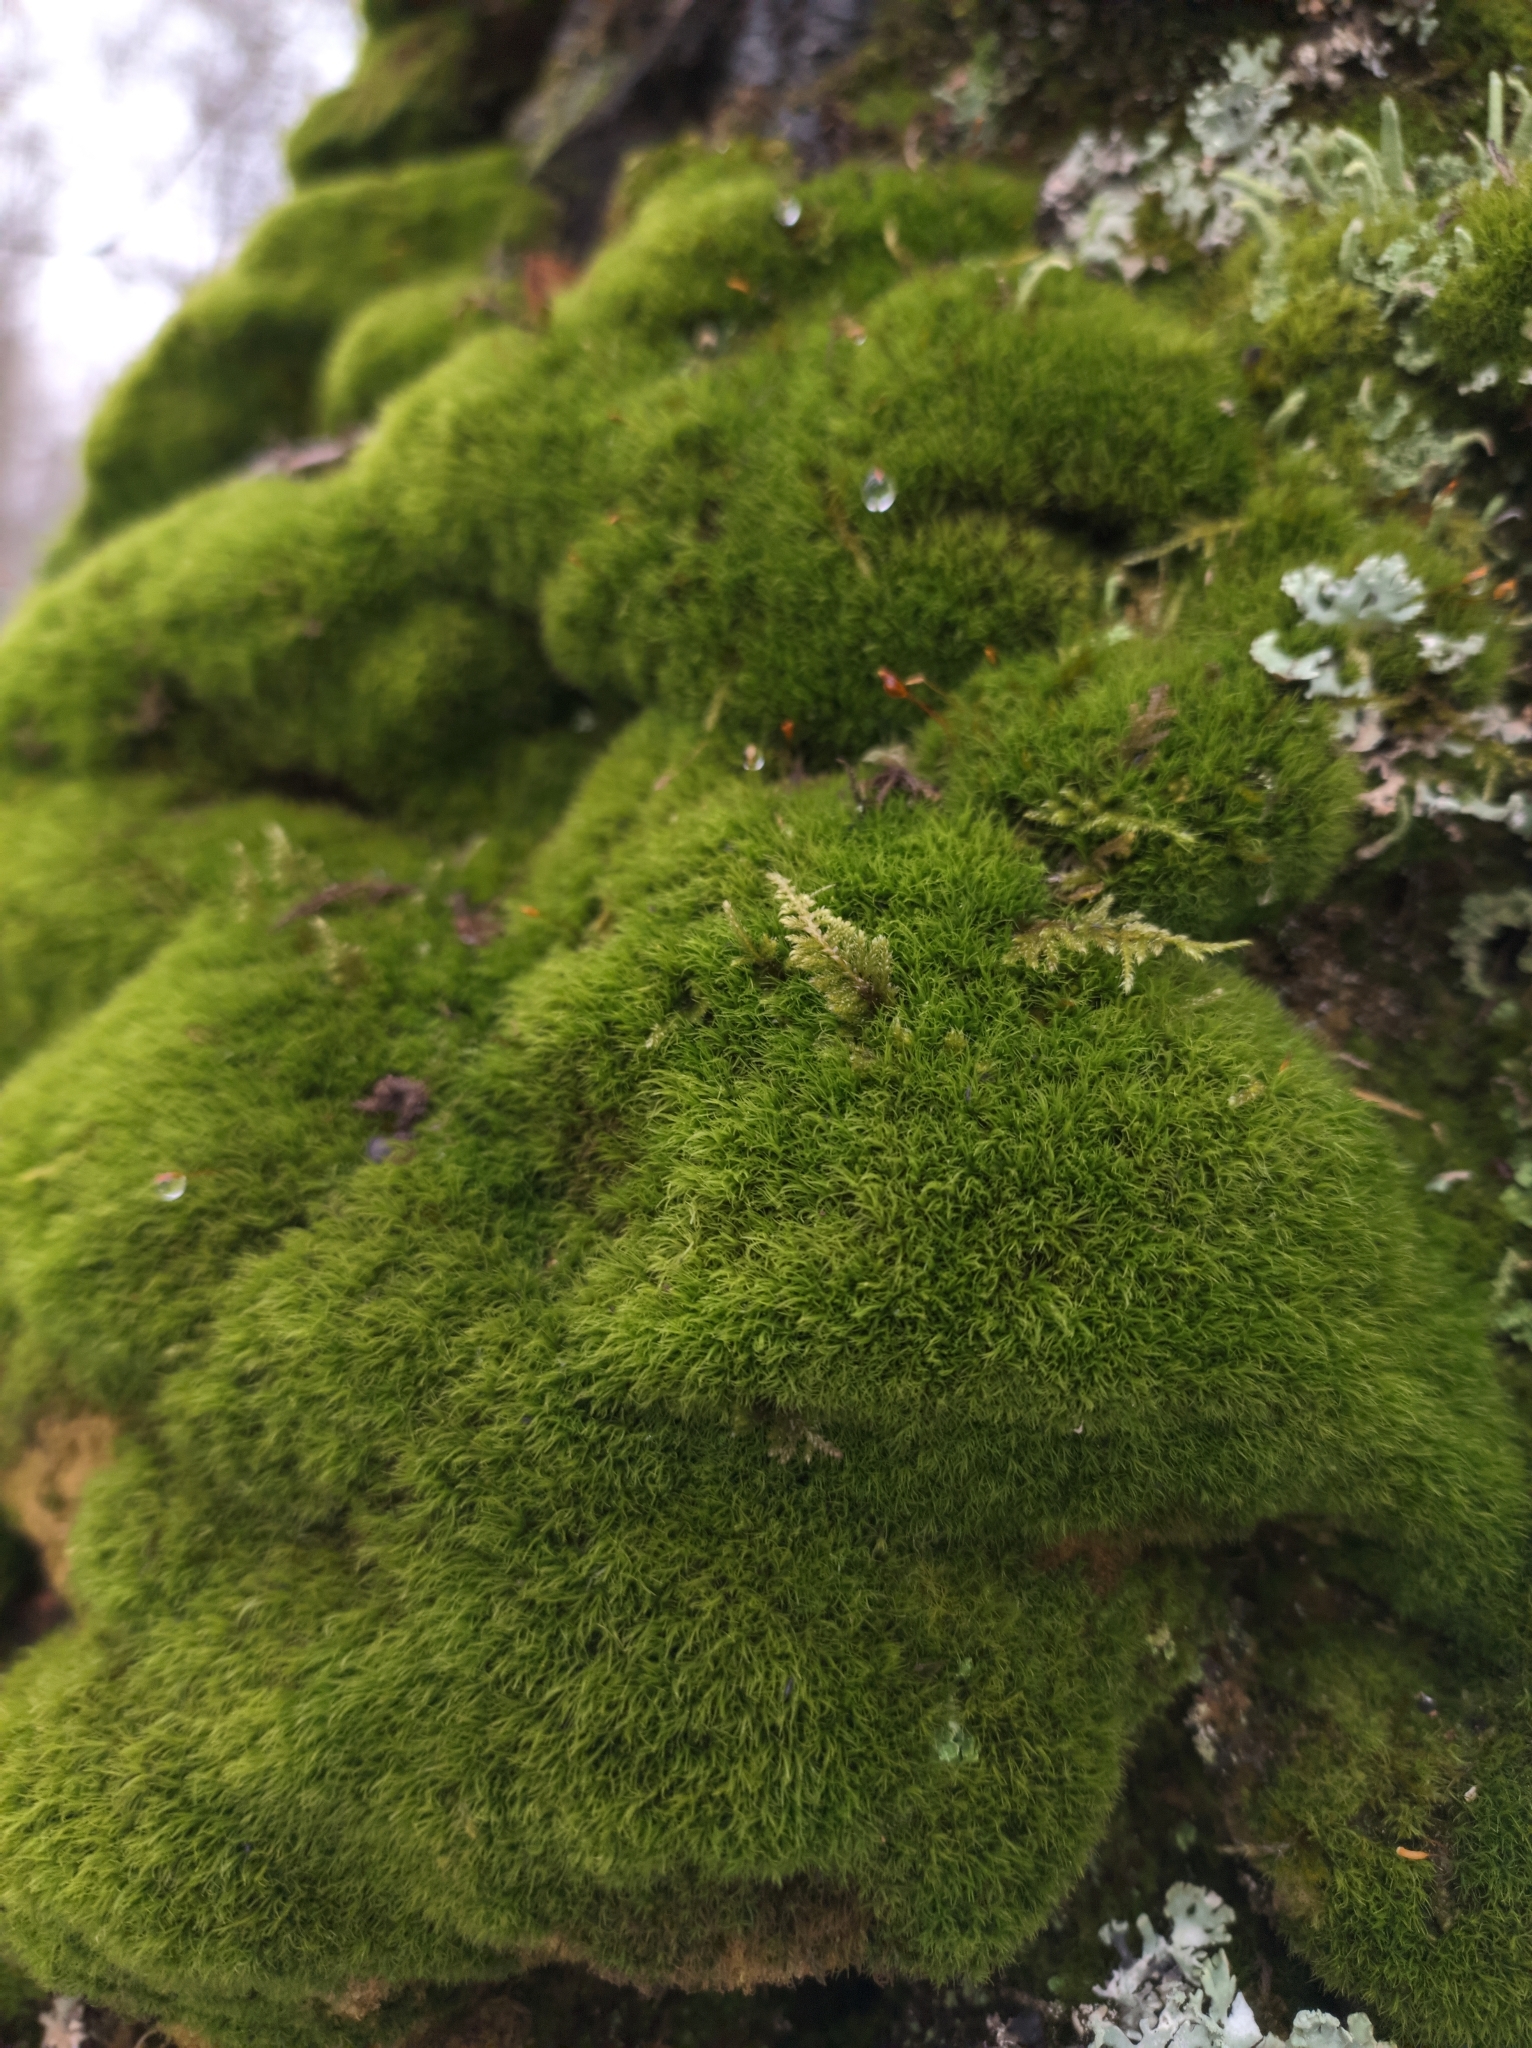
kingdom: Plantae
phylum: Bryophyta
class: Bryopsida
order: Dicranales
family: Dicranaceae
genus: Orthodicranum
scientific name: Orthodicranum montanum
